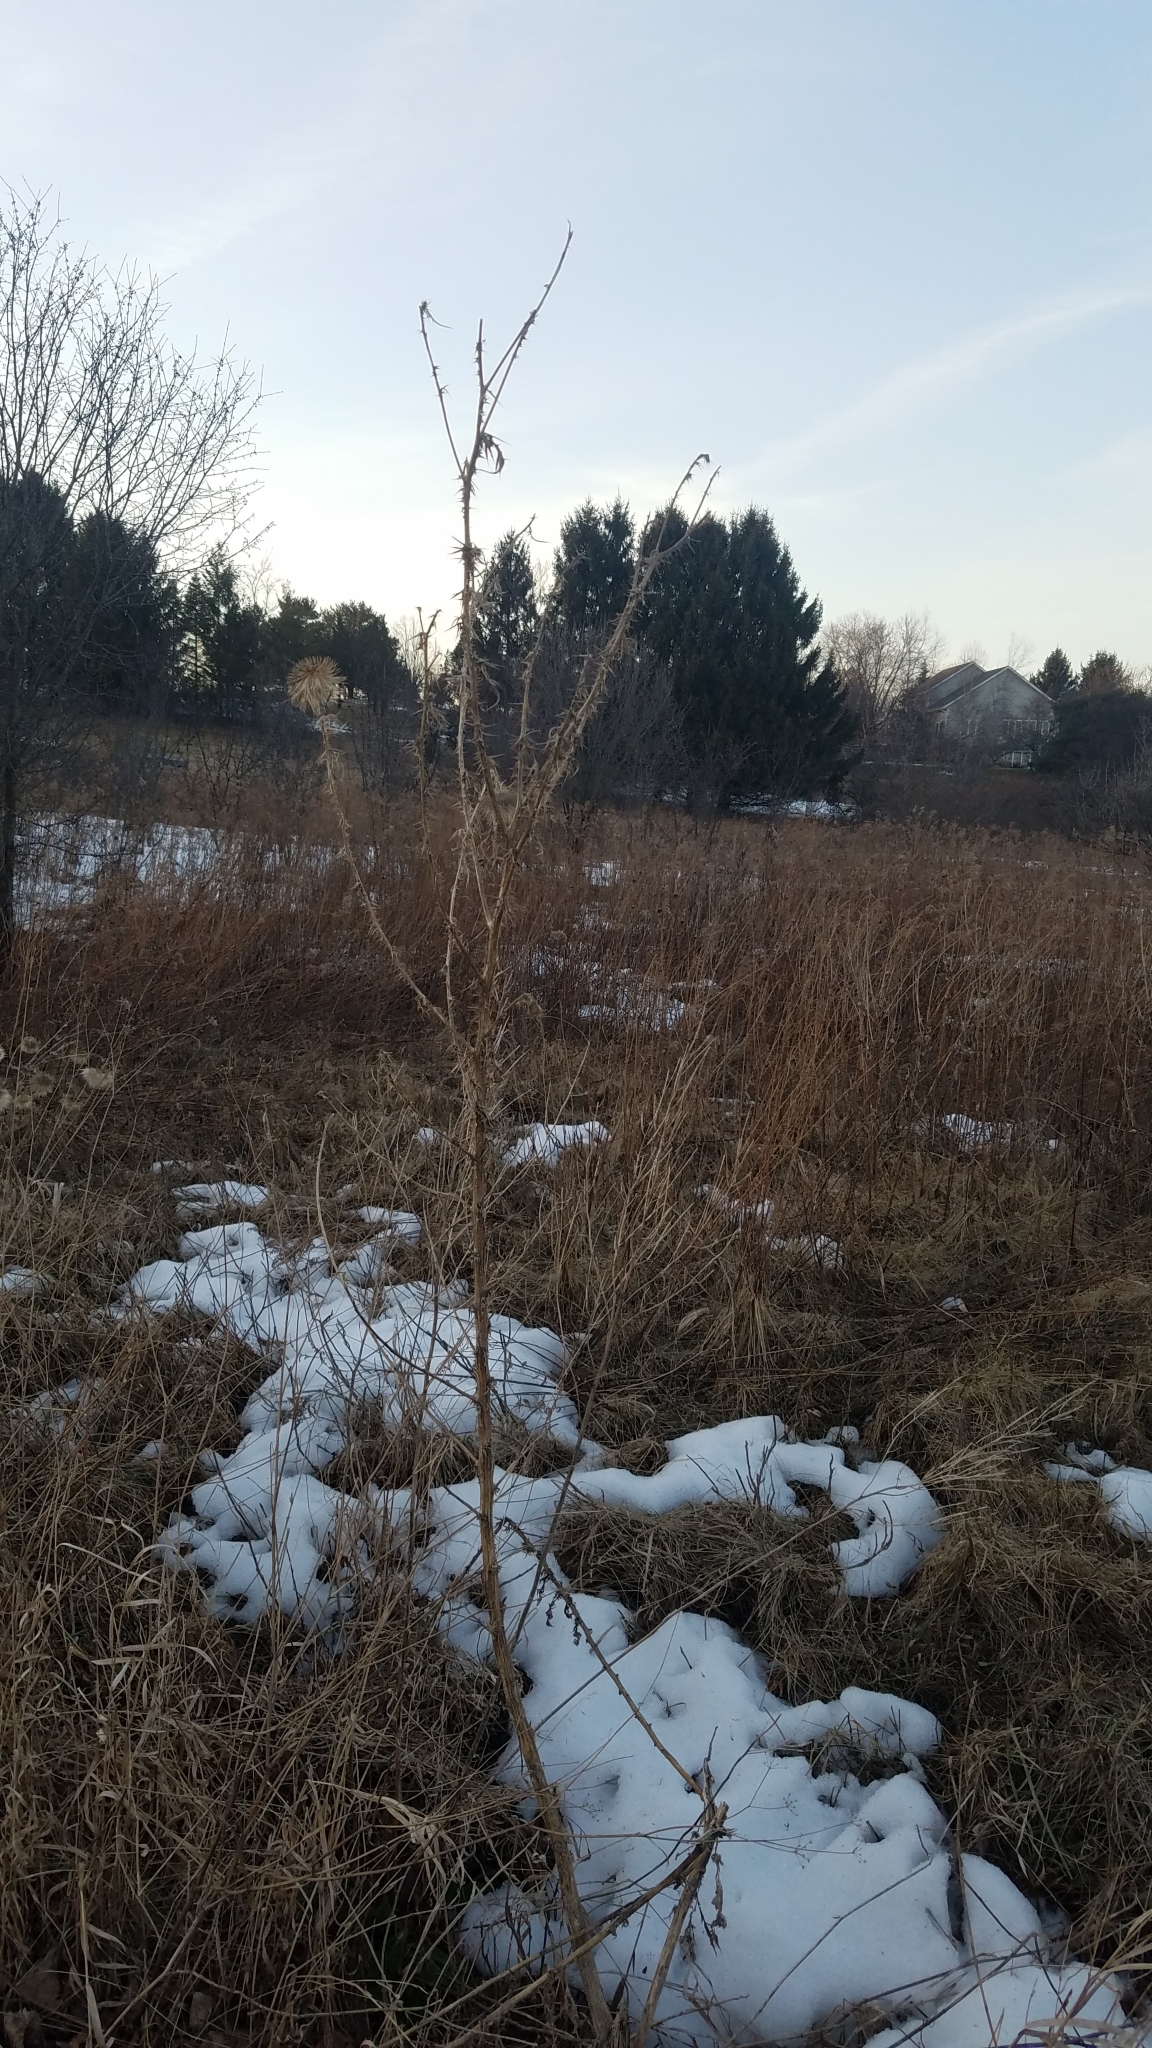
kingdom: Plantae
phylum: Tracheophyta
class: Magnoliopsida
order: Asterales
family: Asteraceae
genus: Cirsium
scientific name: Cirsium vulgare
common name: Bull thistle
